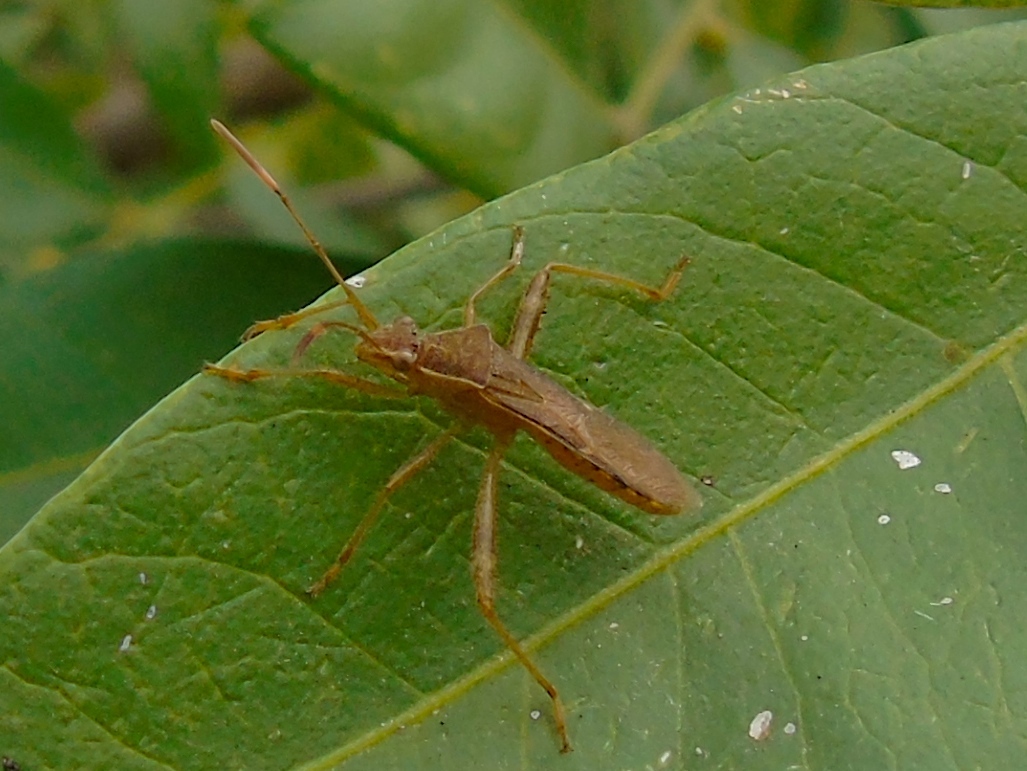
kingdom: Animalia
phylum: Arthropoda
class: Insecta
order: Hemiptera
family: Alydidae
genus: Burtinus
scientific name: Burtinus notatipennis
